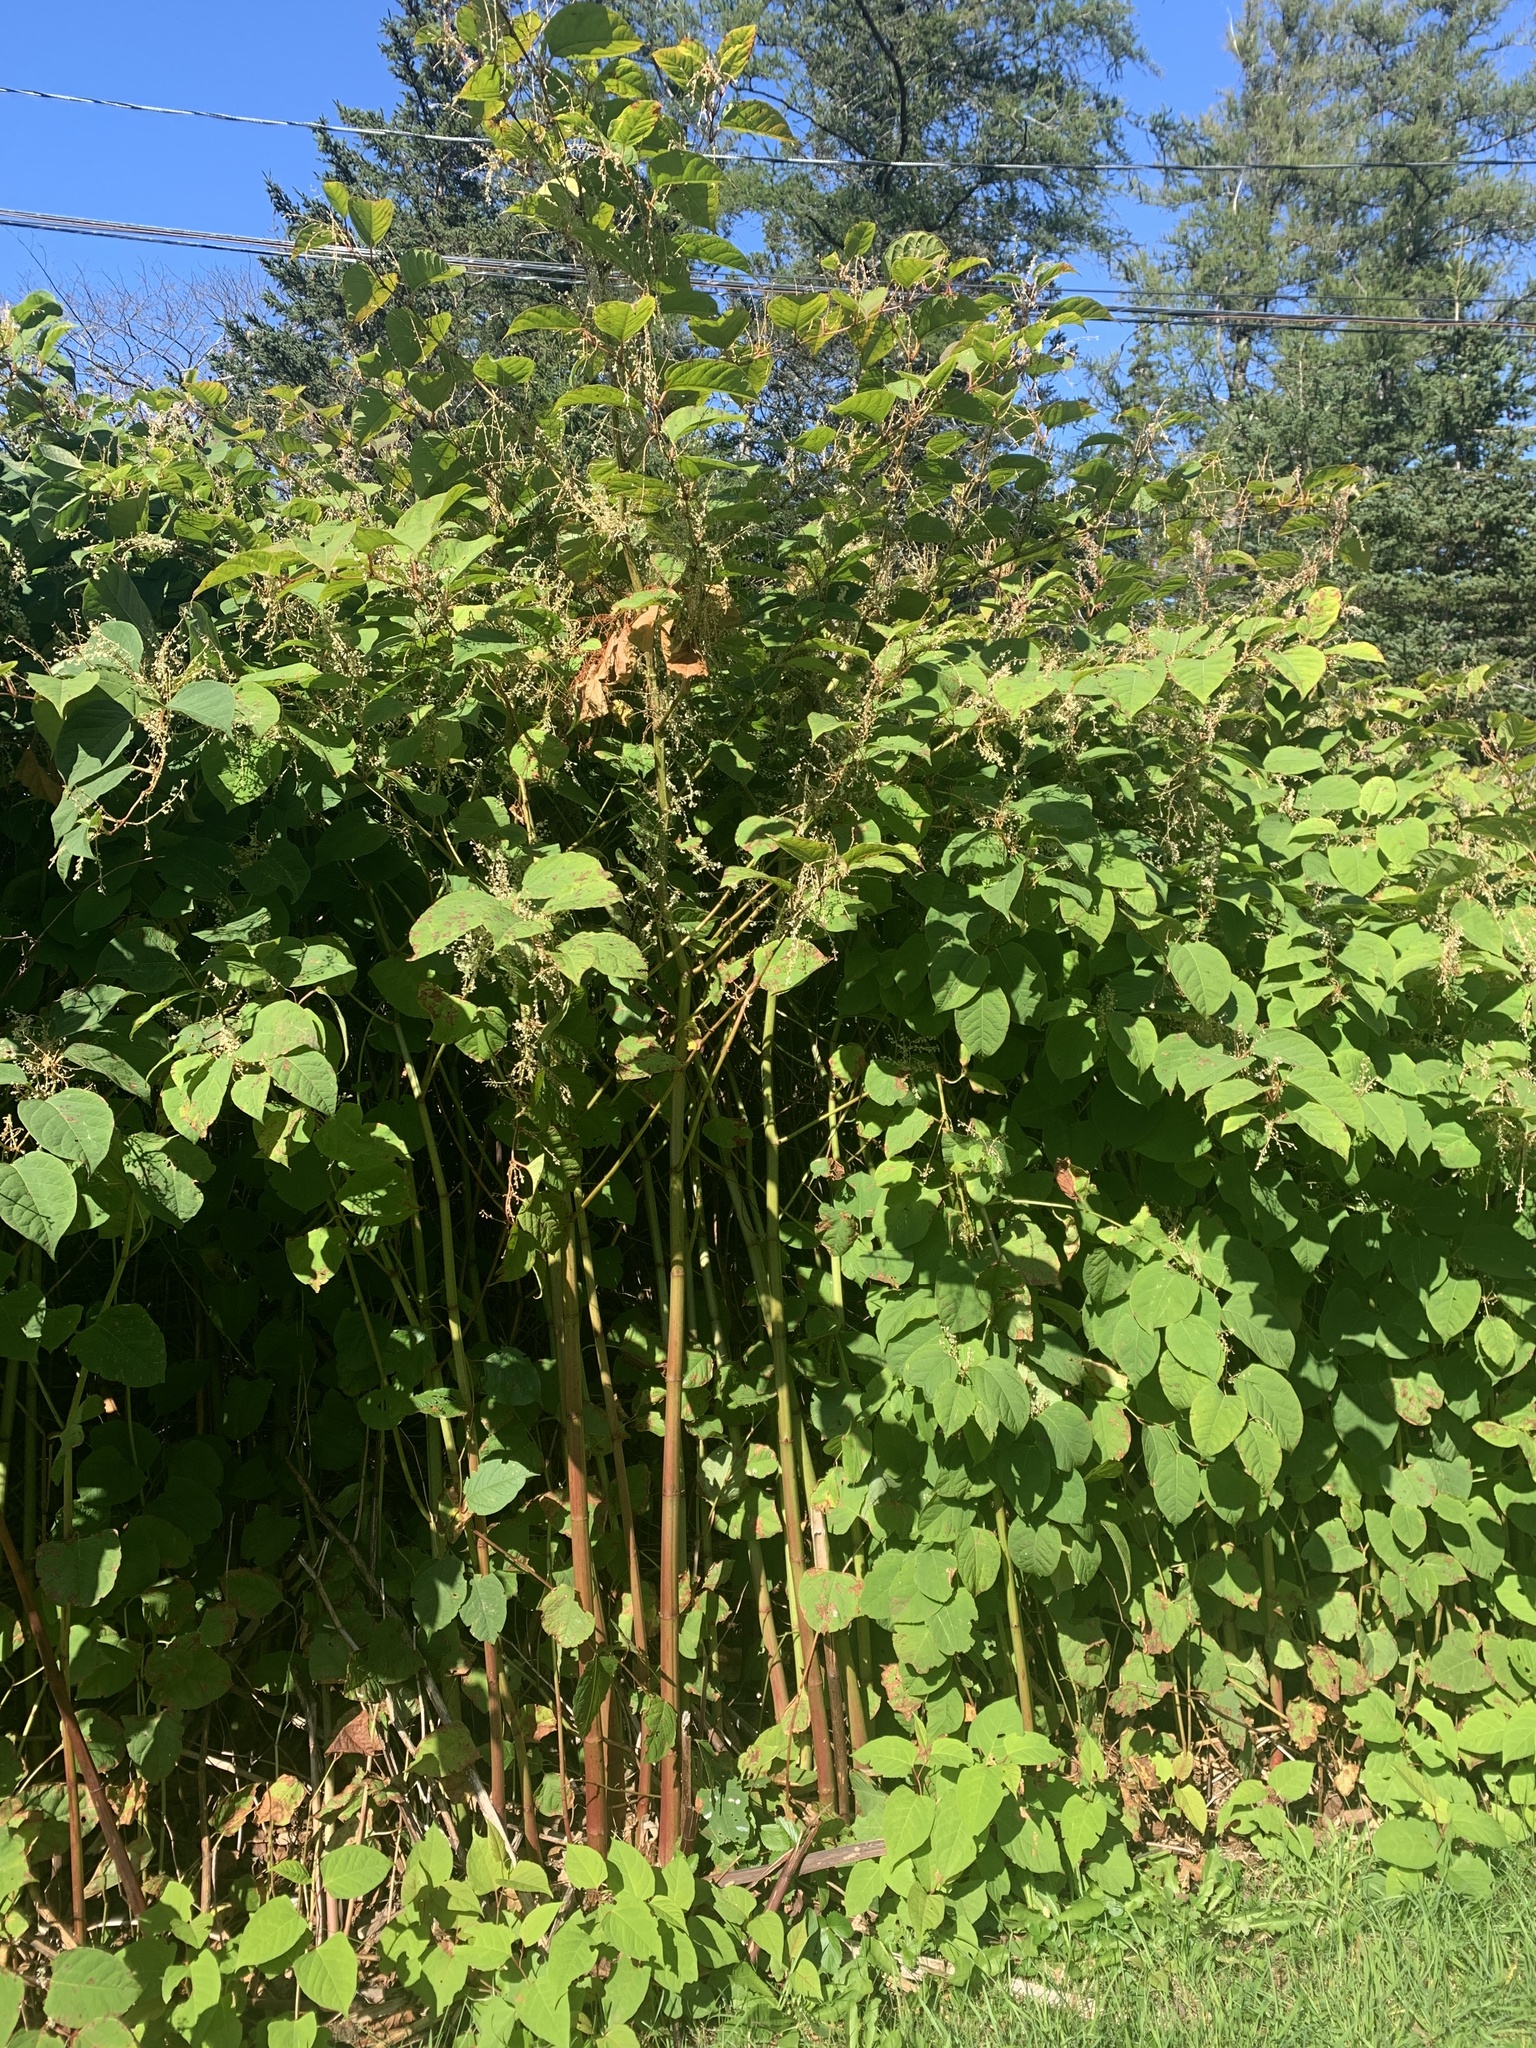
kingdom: Plantae
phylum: Tracheophyta
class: Magnoliopsida
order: Caryophyllales
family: Polygonaceae
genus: Reynoutria
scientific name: Reynoutria japonica
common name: Japanese knotweed
